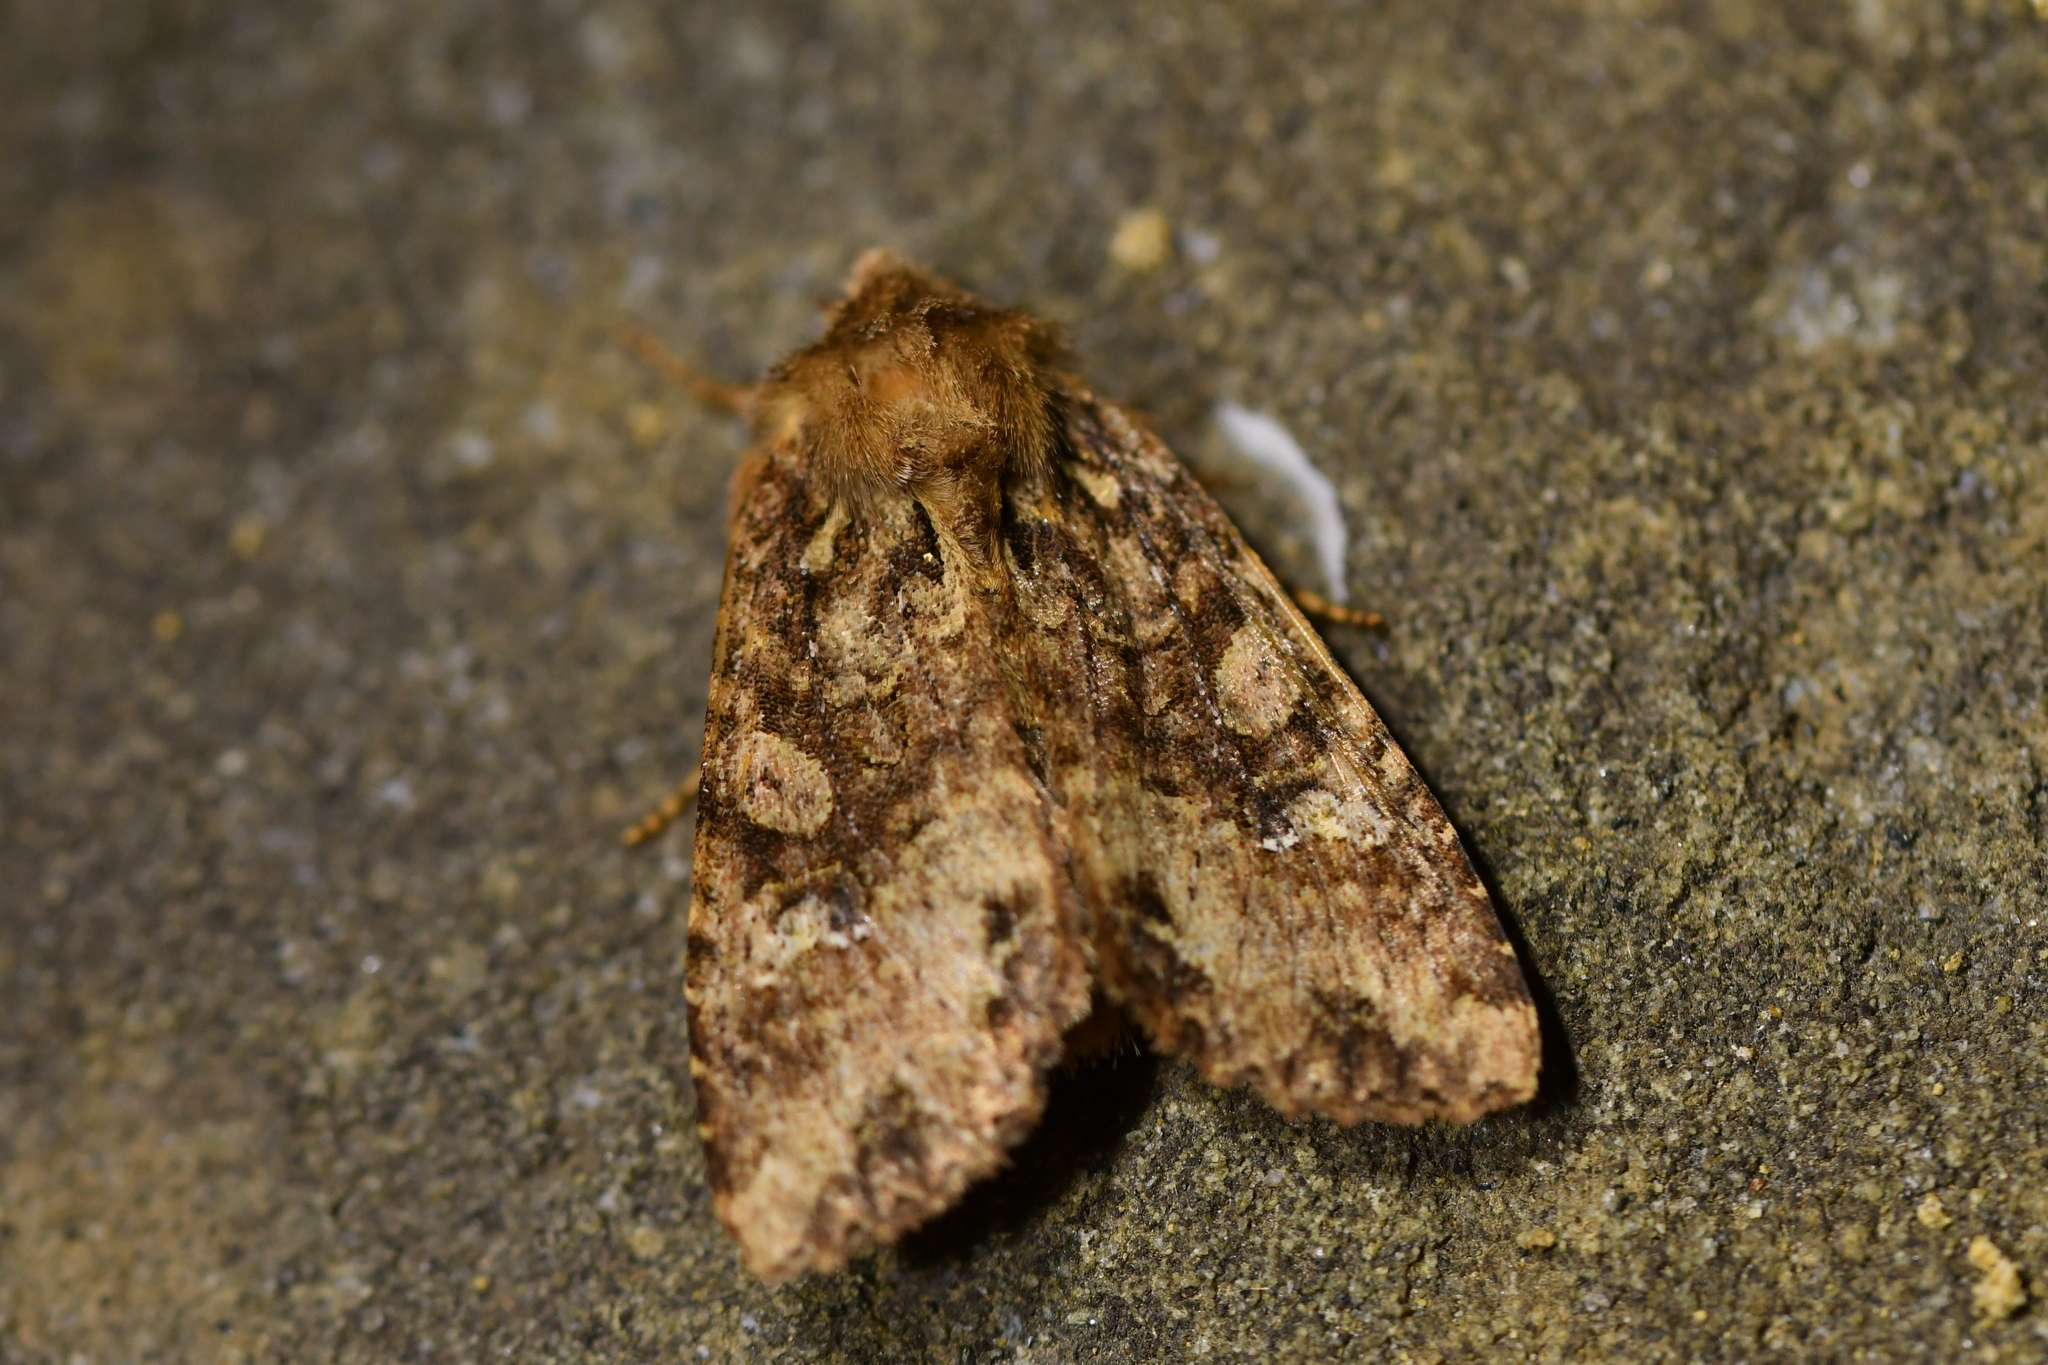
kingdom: Animalia
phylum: Arthropoda
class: Insecta
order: Lepidoptera
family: Noctuidae
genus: Meterana
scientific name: Meterana
